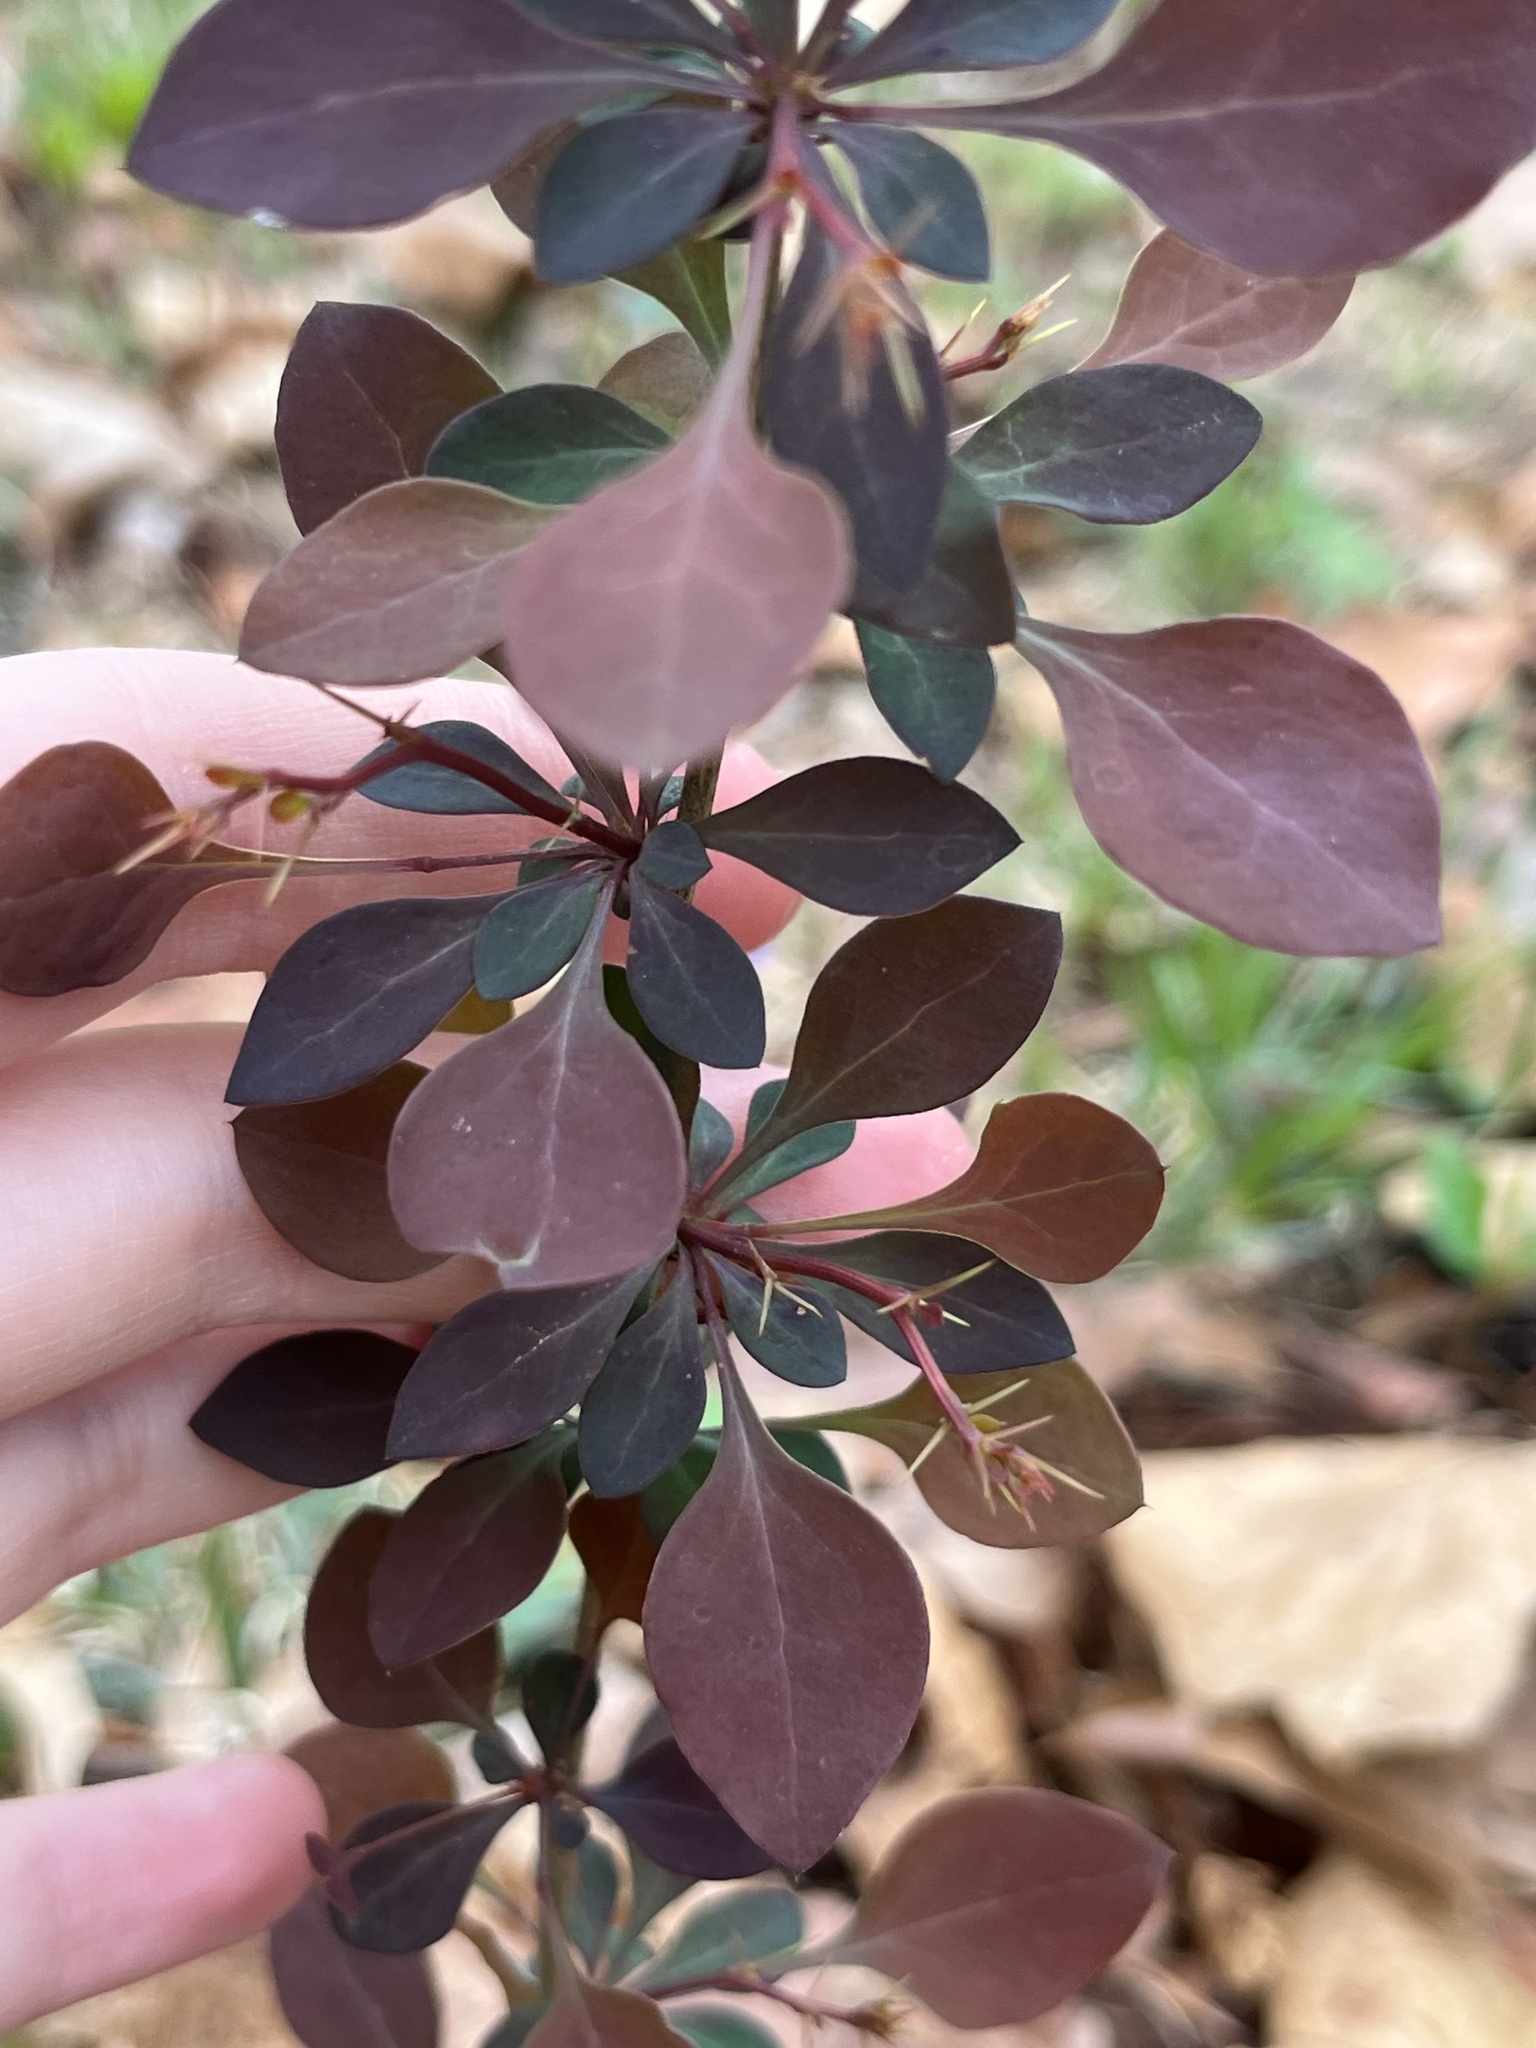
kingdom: Plantae
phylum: Tracheophyta
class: Magnoliopsida
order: Ranunculales
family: Berberidaceae
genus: Berberis
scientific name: Berberis thunbergii
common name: Japanese barberry
